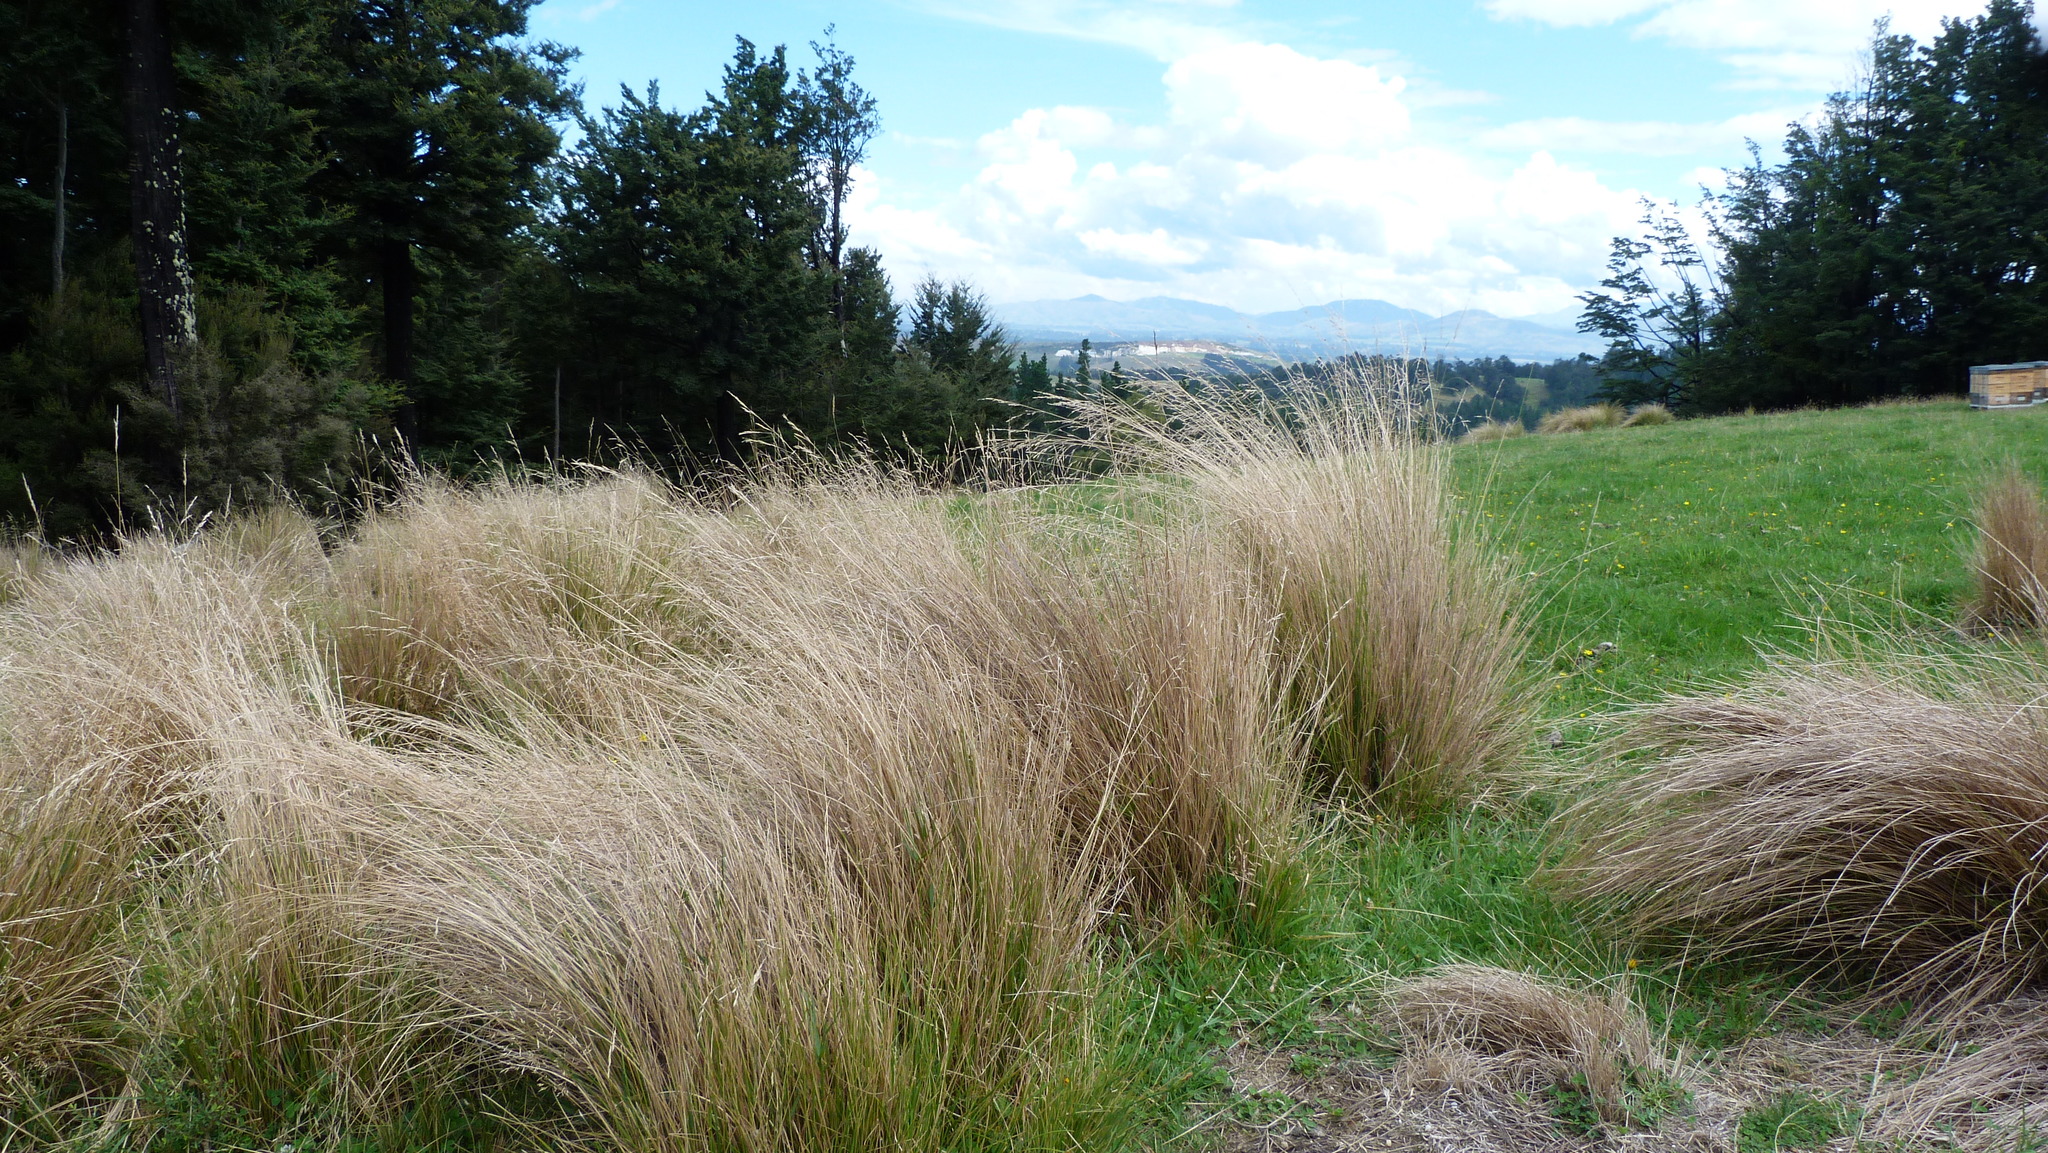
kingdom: Plantae
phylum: Tracheophyta
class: Liliopsida
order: Poales
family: Poaceae
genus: Poa
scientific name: Poa cita
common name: Silver tussock
